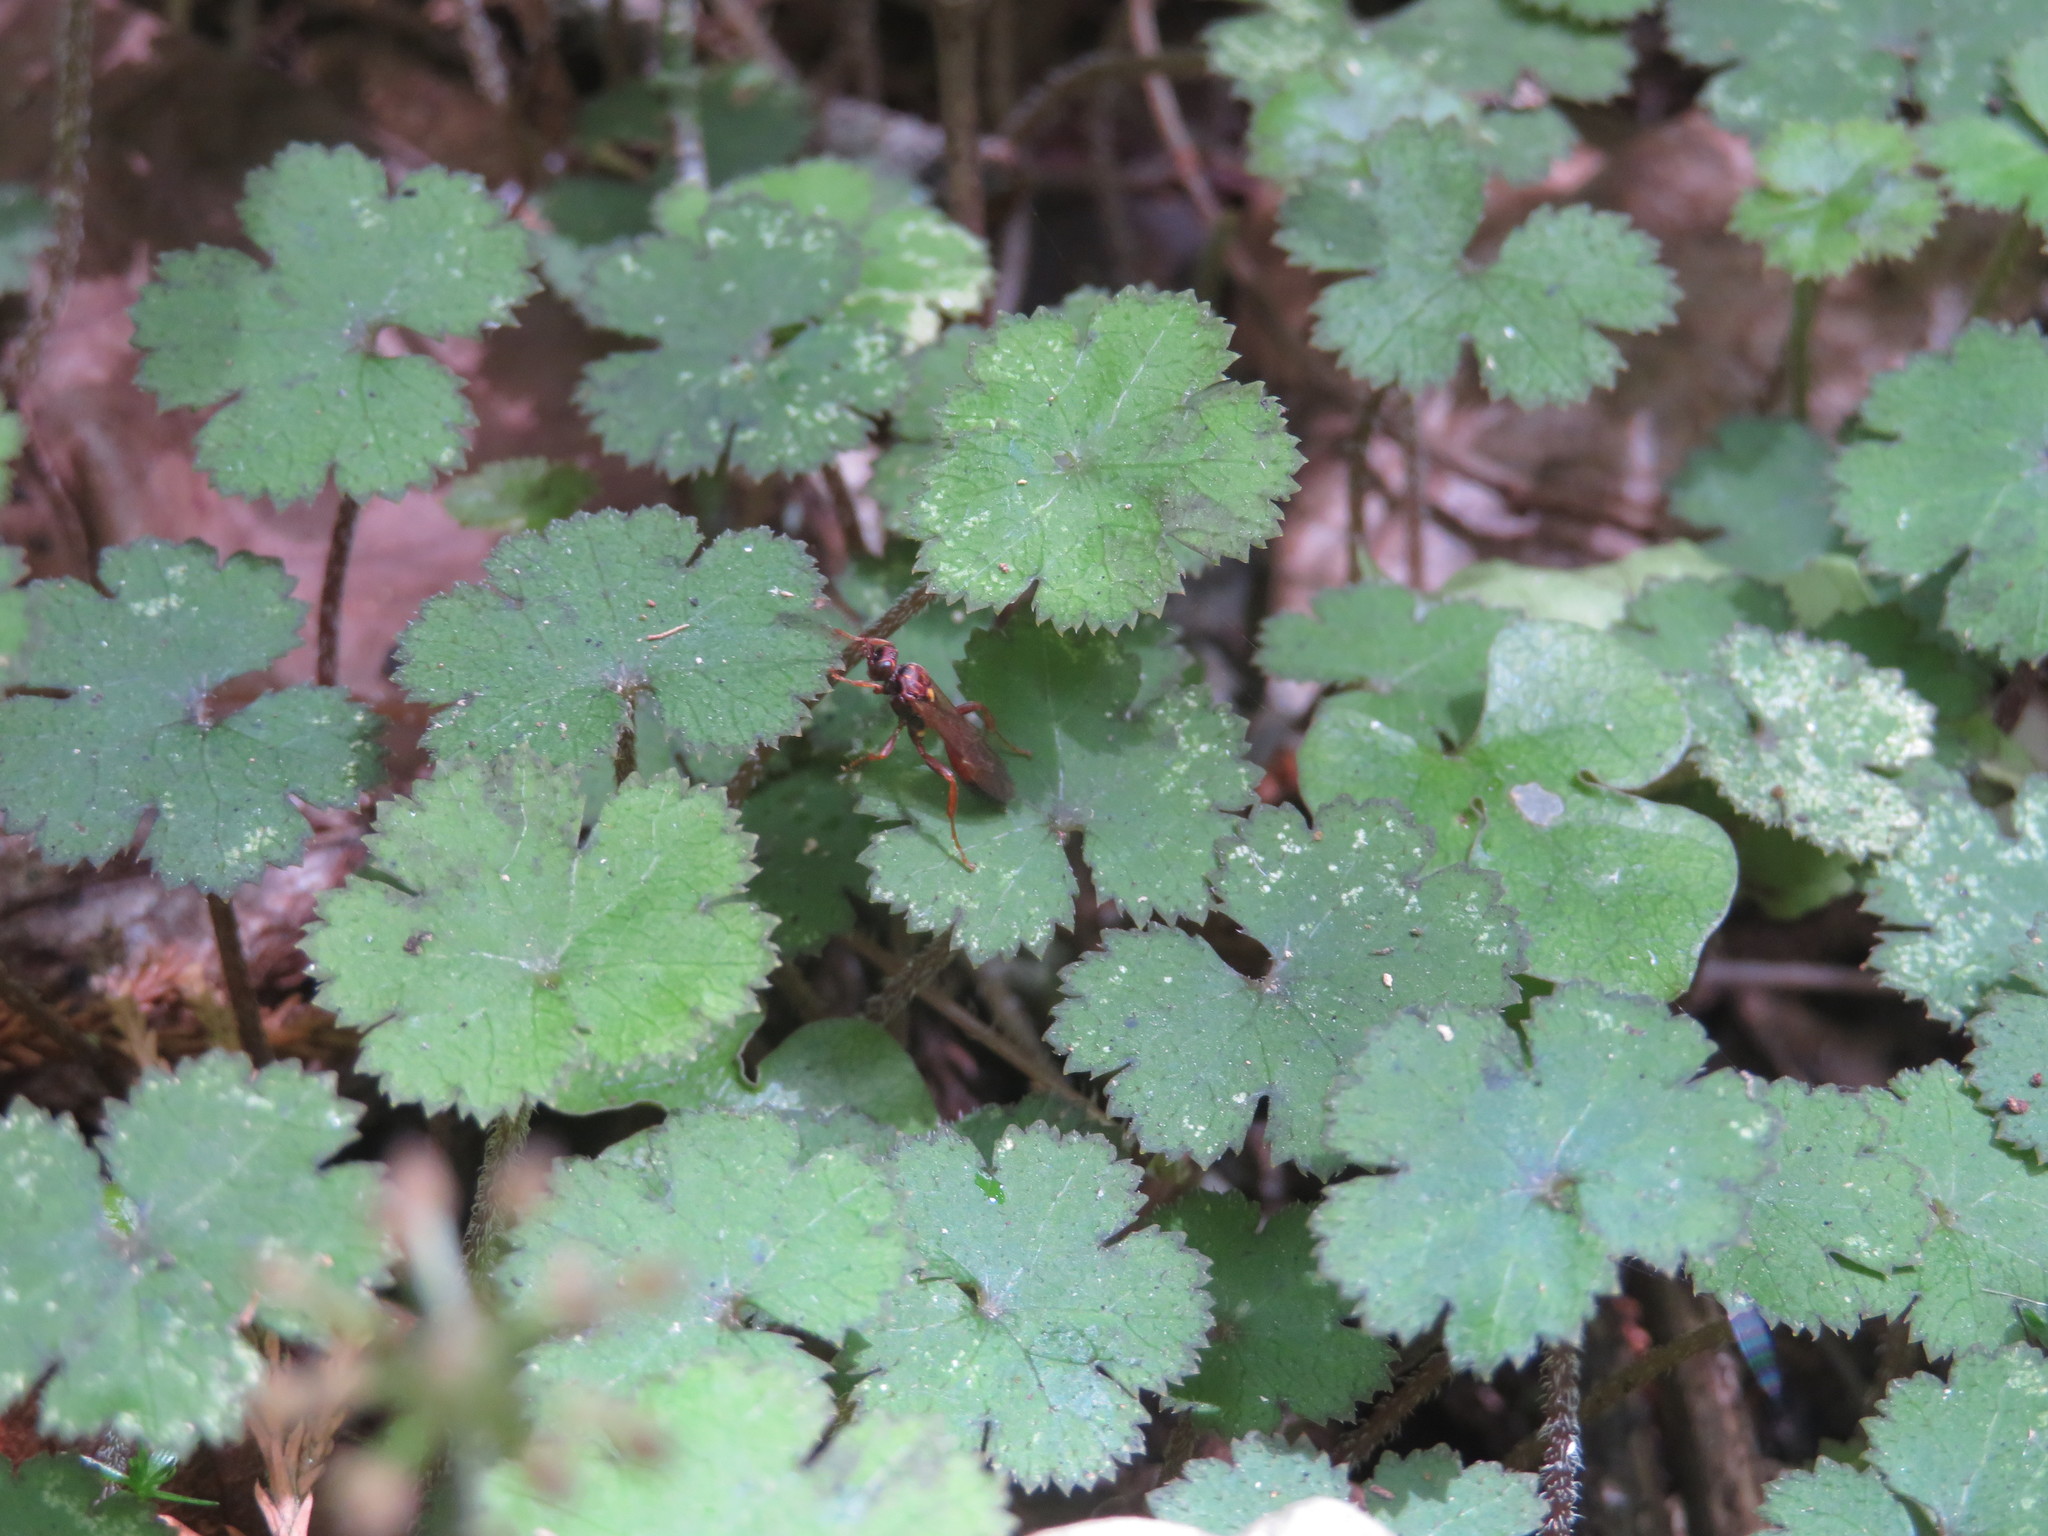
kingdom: Plantae
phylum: Tracheophyta
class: Magnoliopsida
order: Apiales
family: Araliaceae
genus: Hydrocotyle
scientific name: Hydrocotyle elongata
